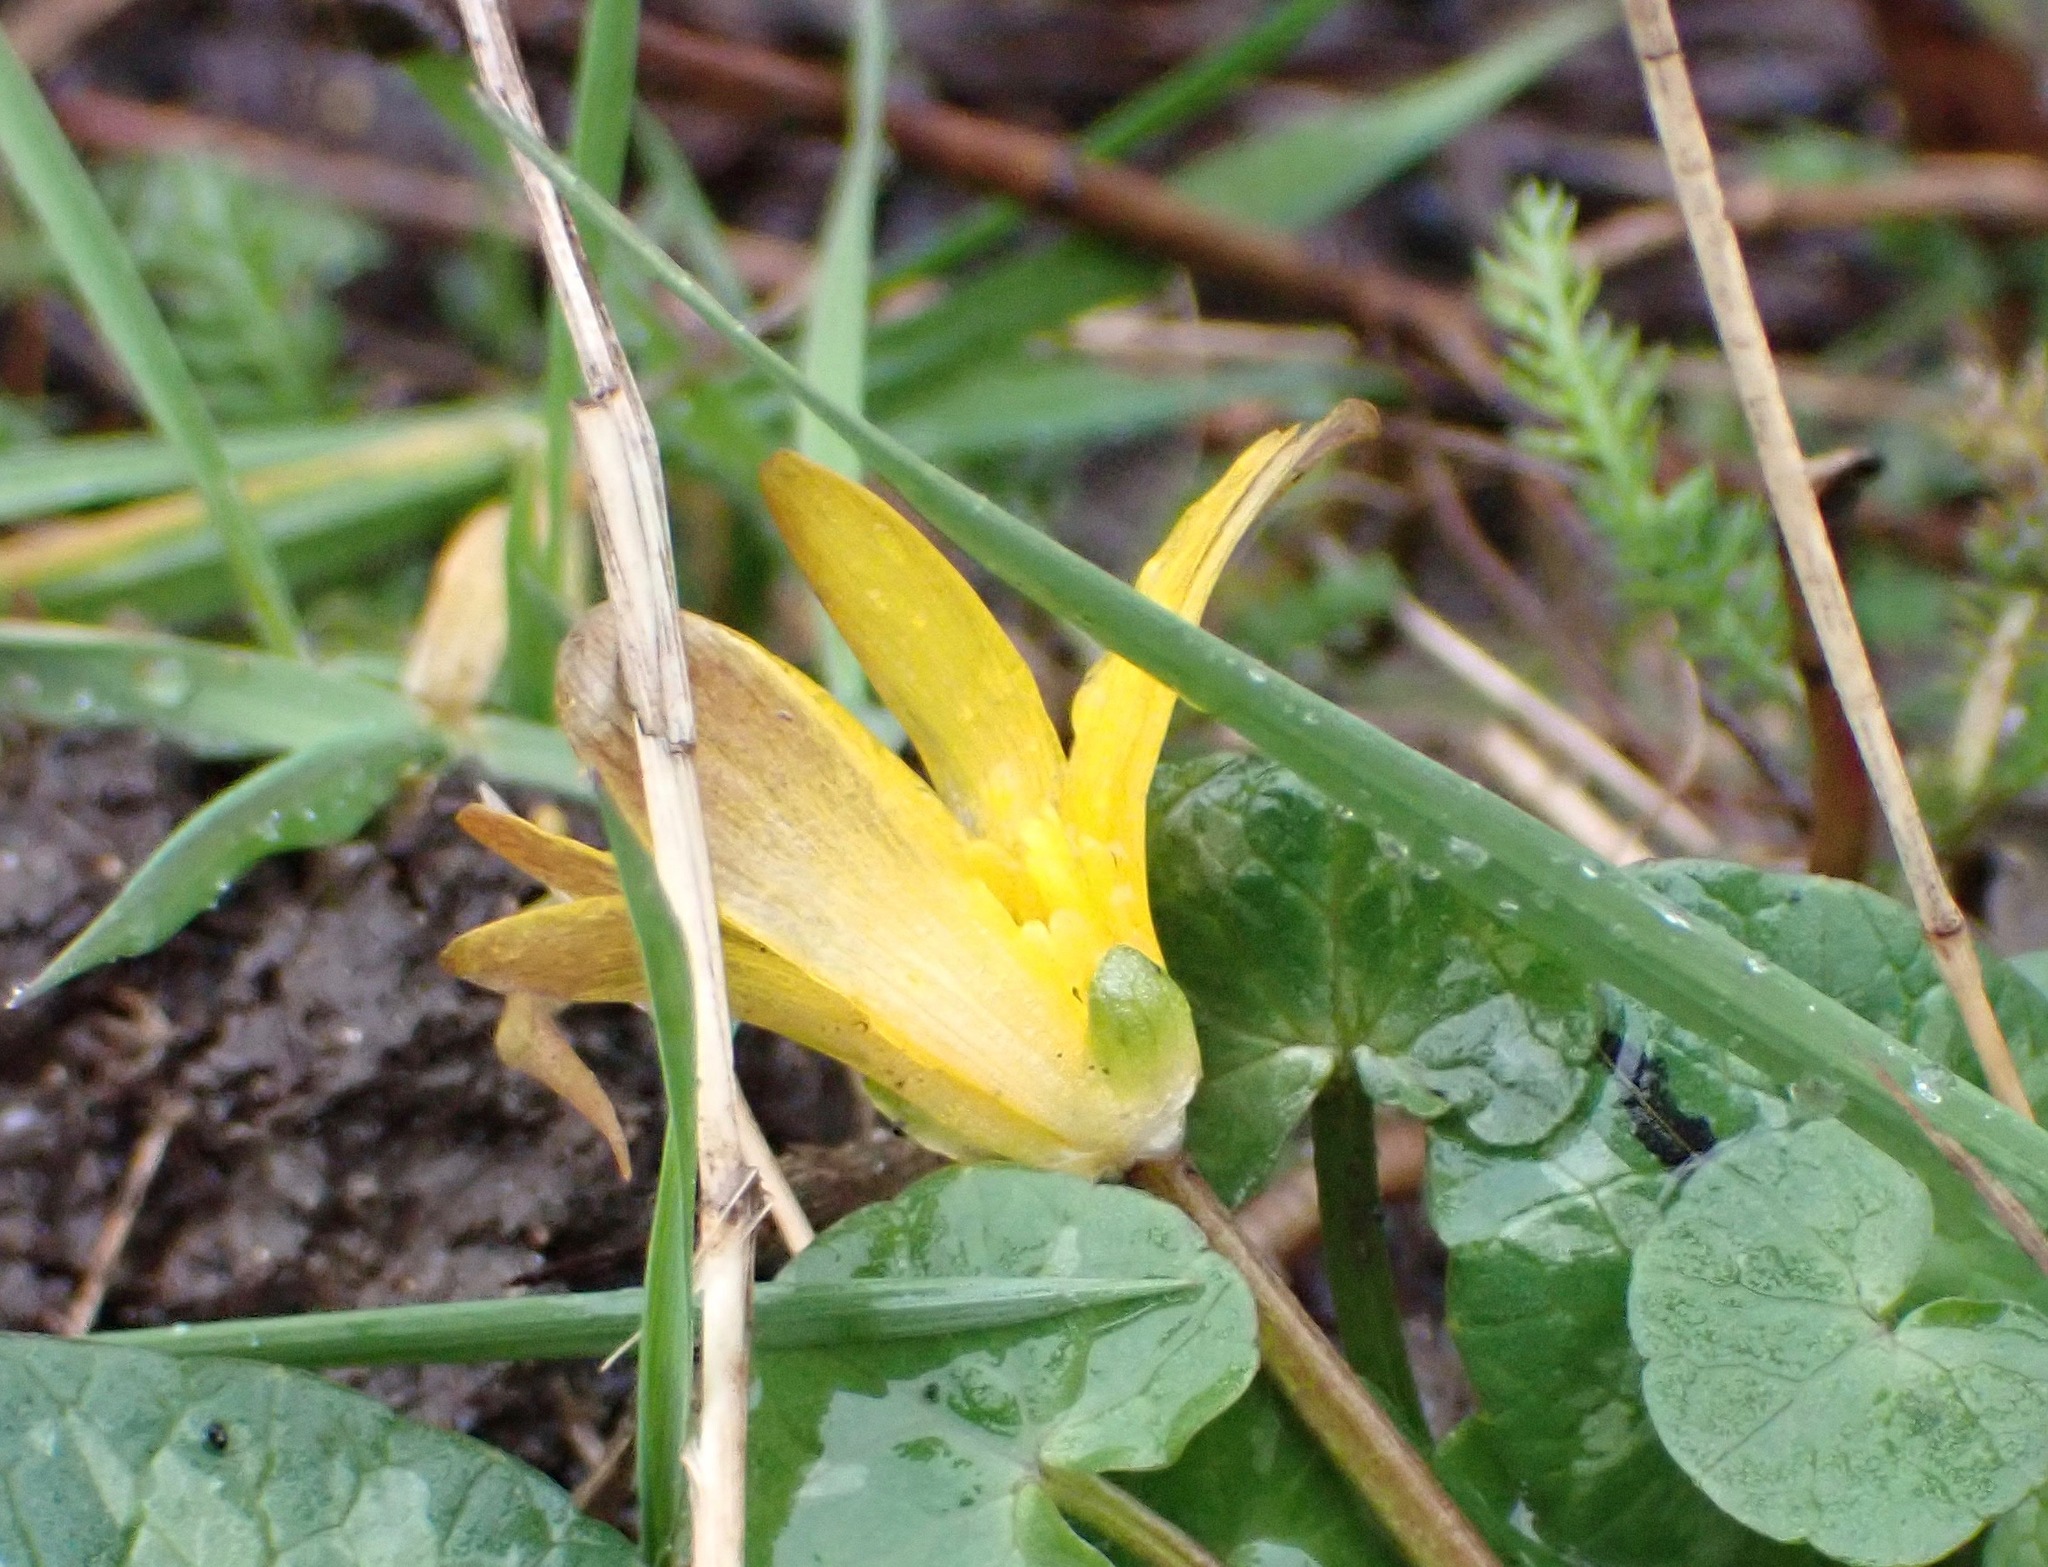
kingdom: Plantae
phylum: Tracheophyta
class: Magnoliopsida
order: Ranunculales
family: Ranunculaceae
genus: Ficaria
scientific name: Ficaria verna
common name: Lesser celandine
